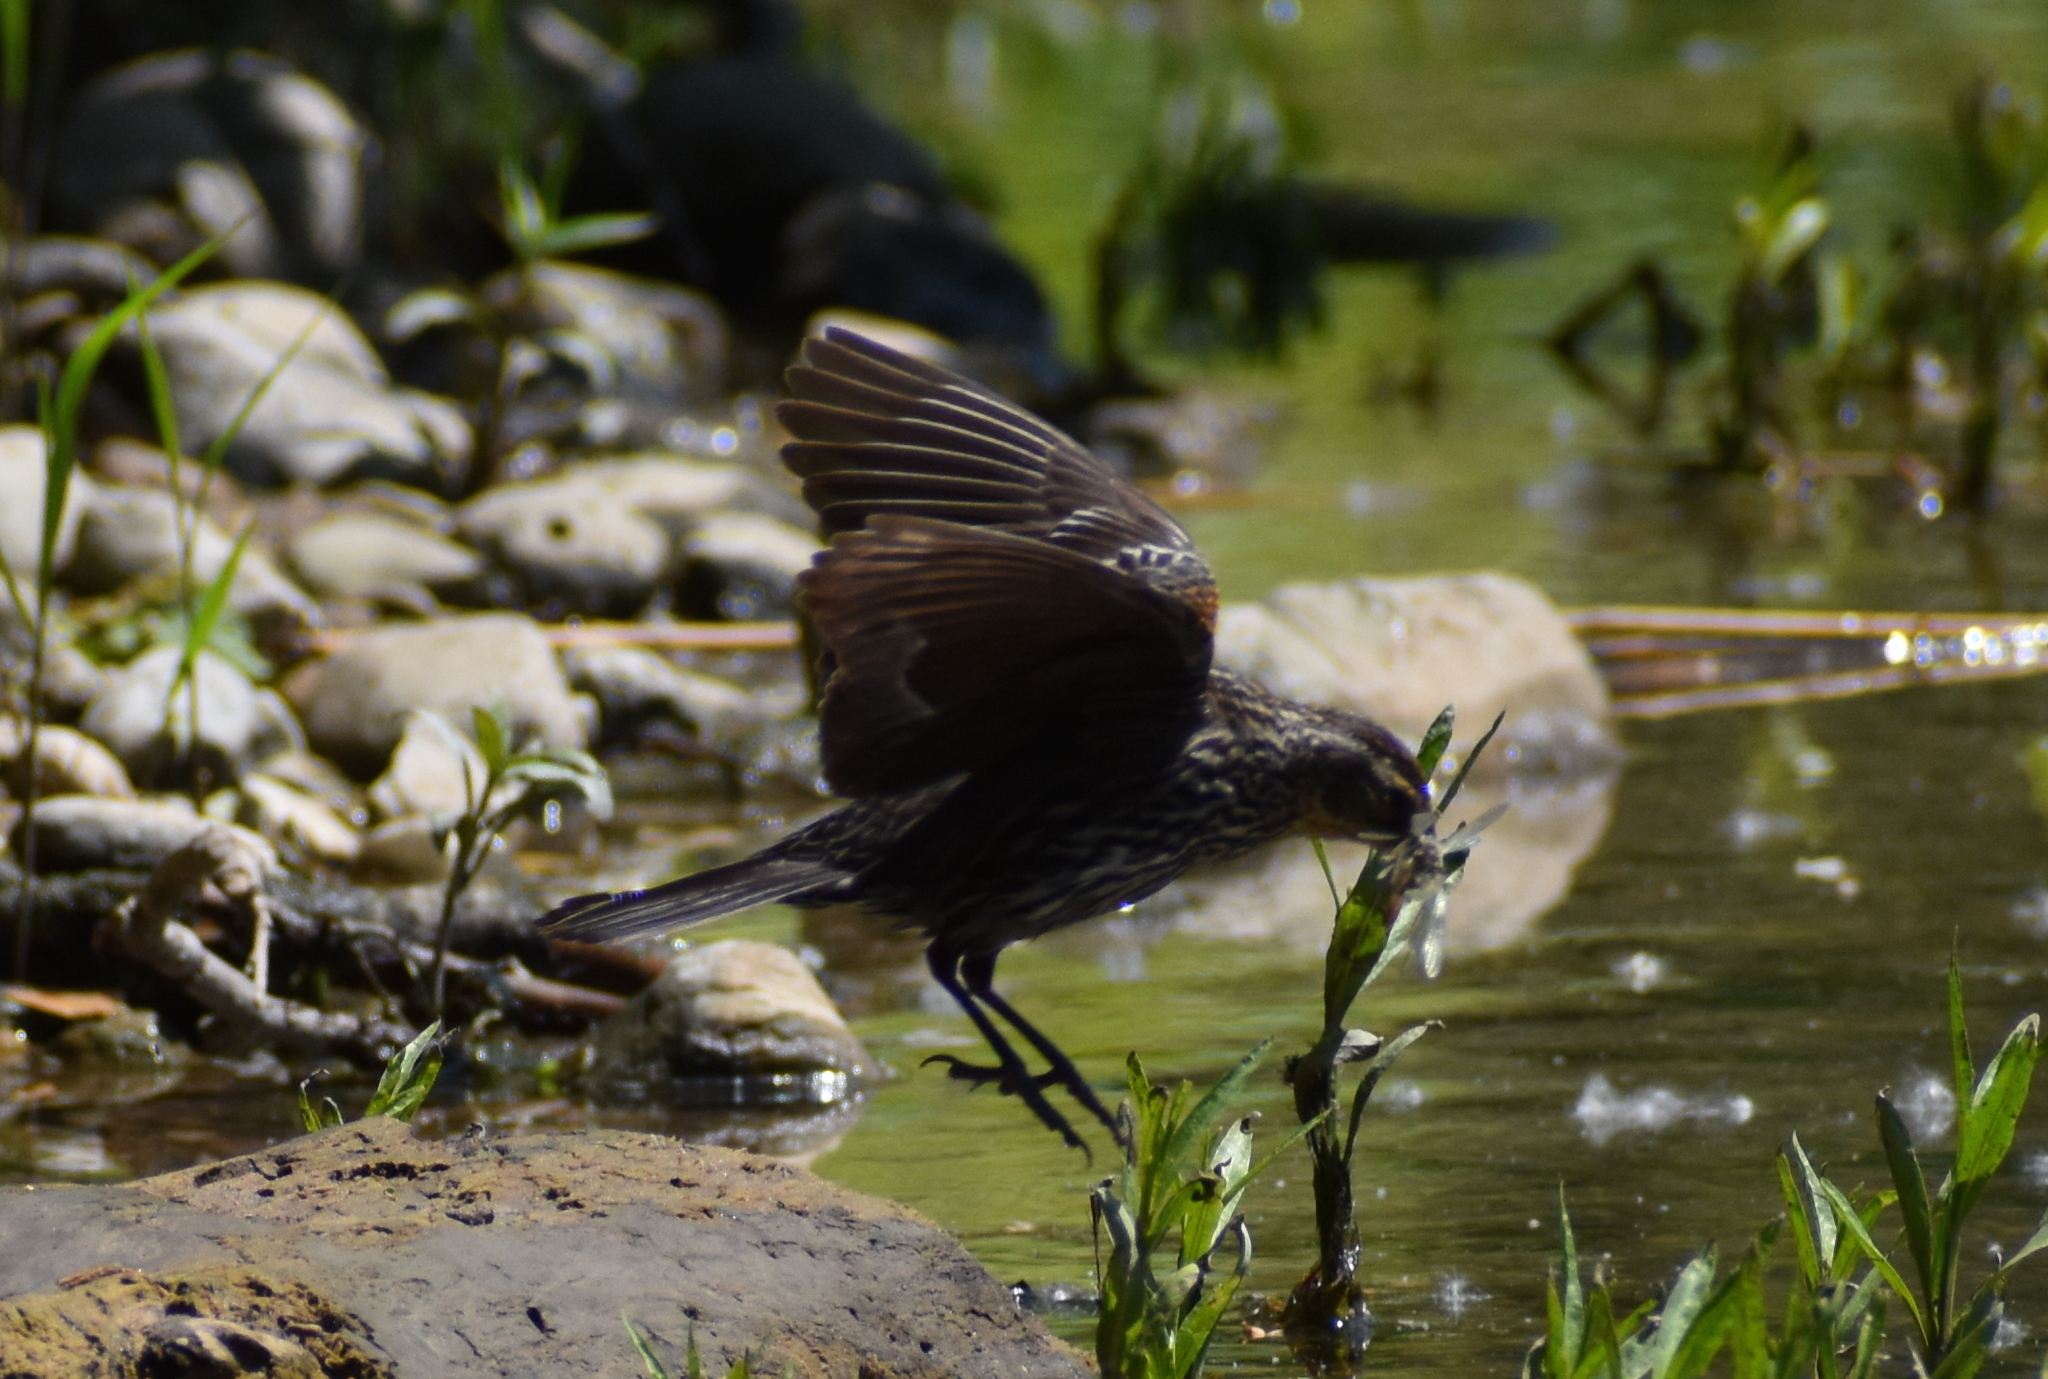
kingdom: Animalia
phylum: Chordata
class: Aves
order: Passeriformes
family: Icteridae
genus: Agelaius
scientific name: Agelaius phoeniceus
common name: Red-winged blackbird
